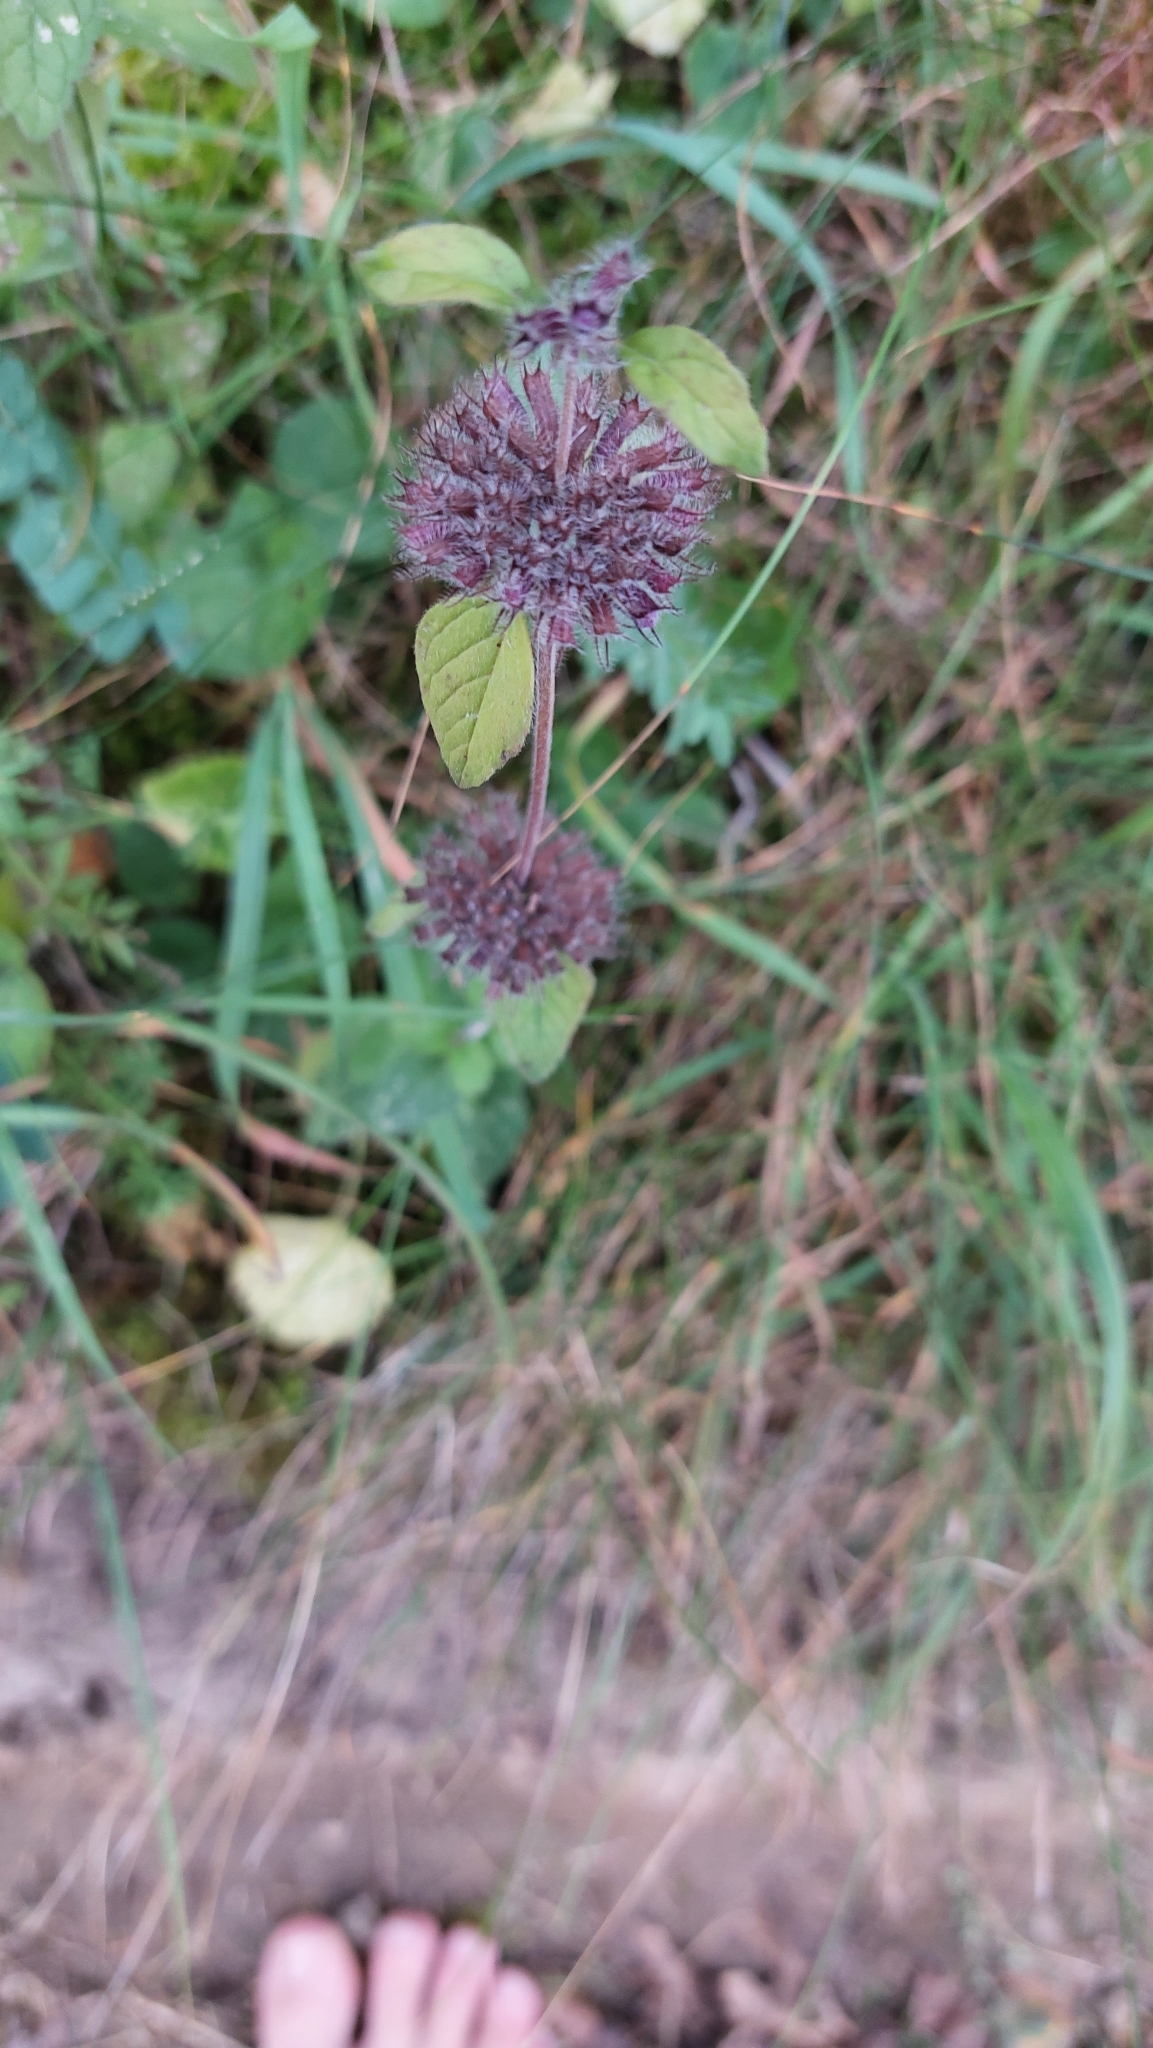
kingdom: Plantae
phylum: Tracheophyta
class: Magnoliopsida
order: Lamiales
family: Lamiaceae
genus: Clinopodium
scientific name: Clinopodium vulgare
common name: Wild basil
